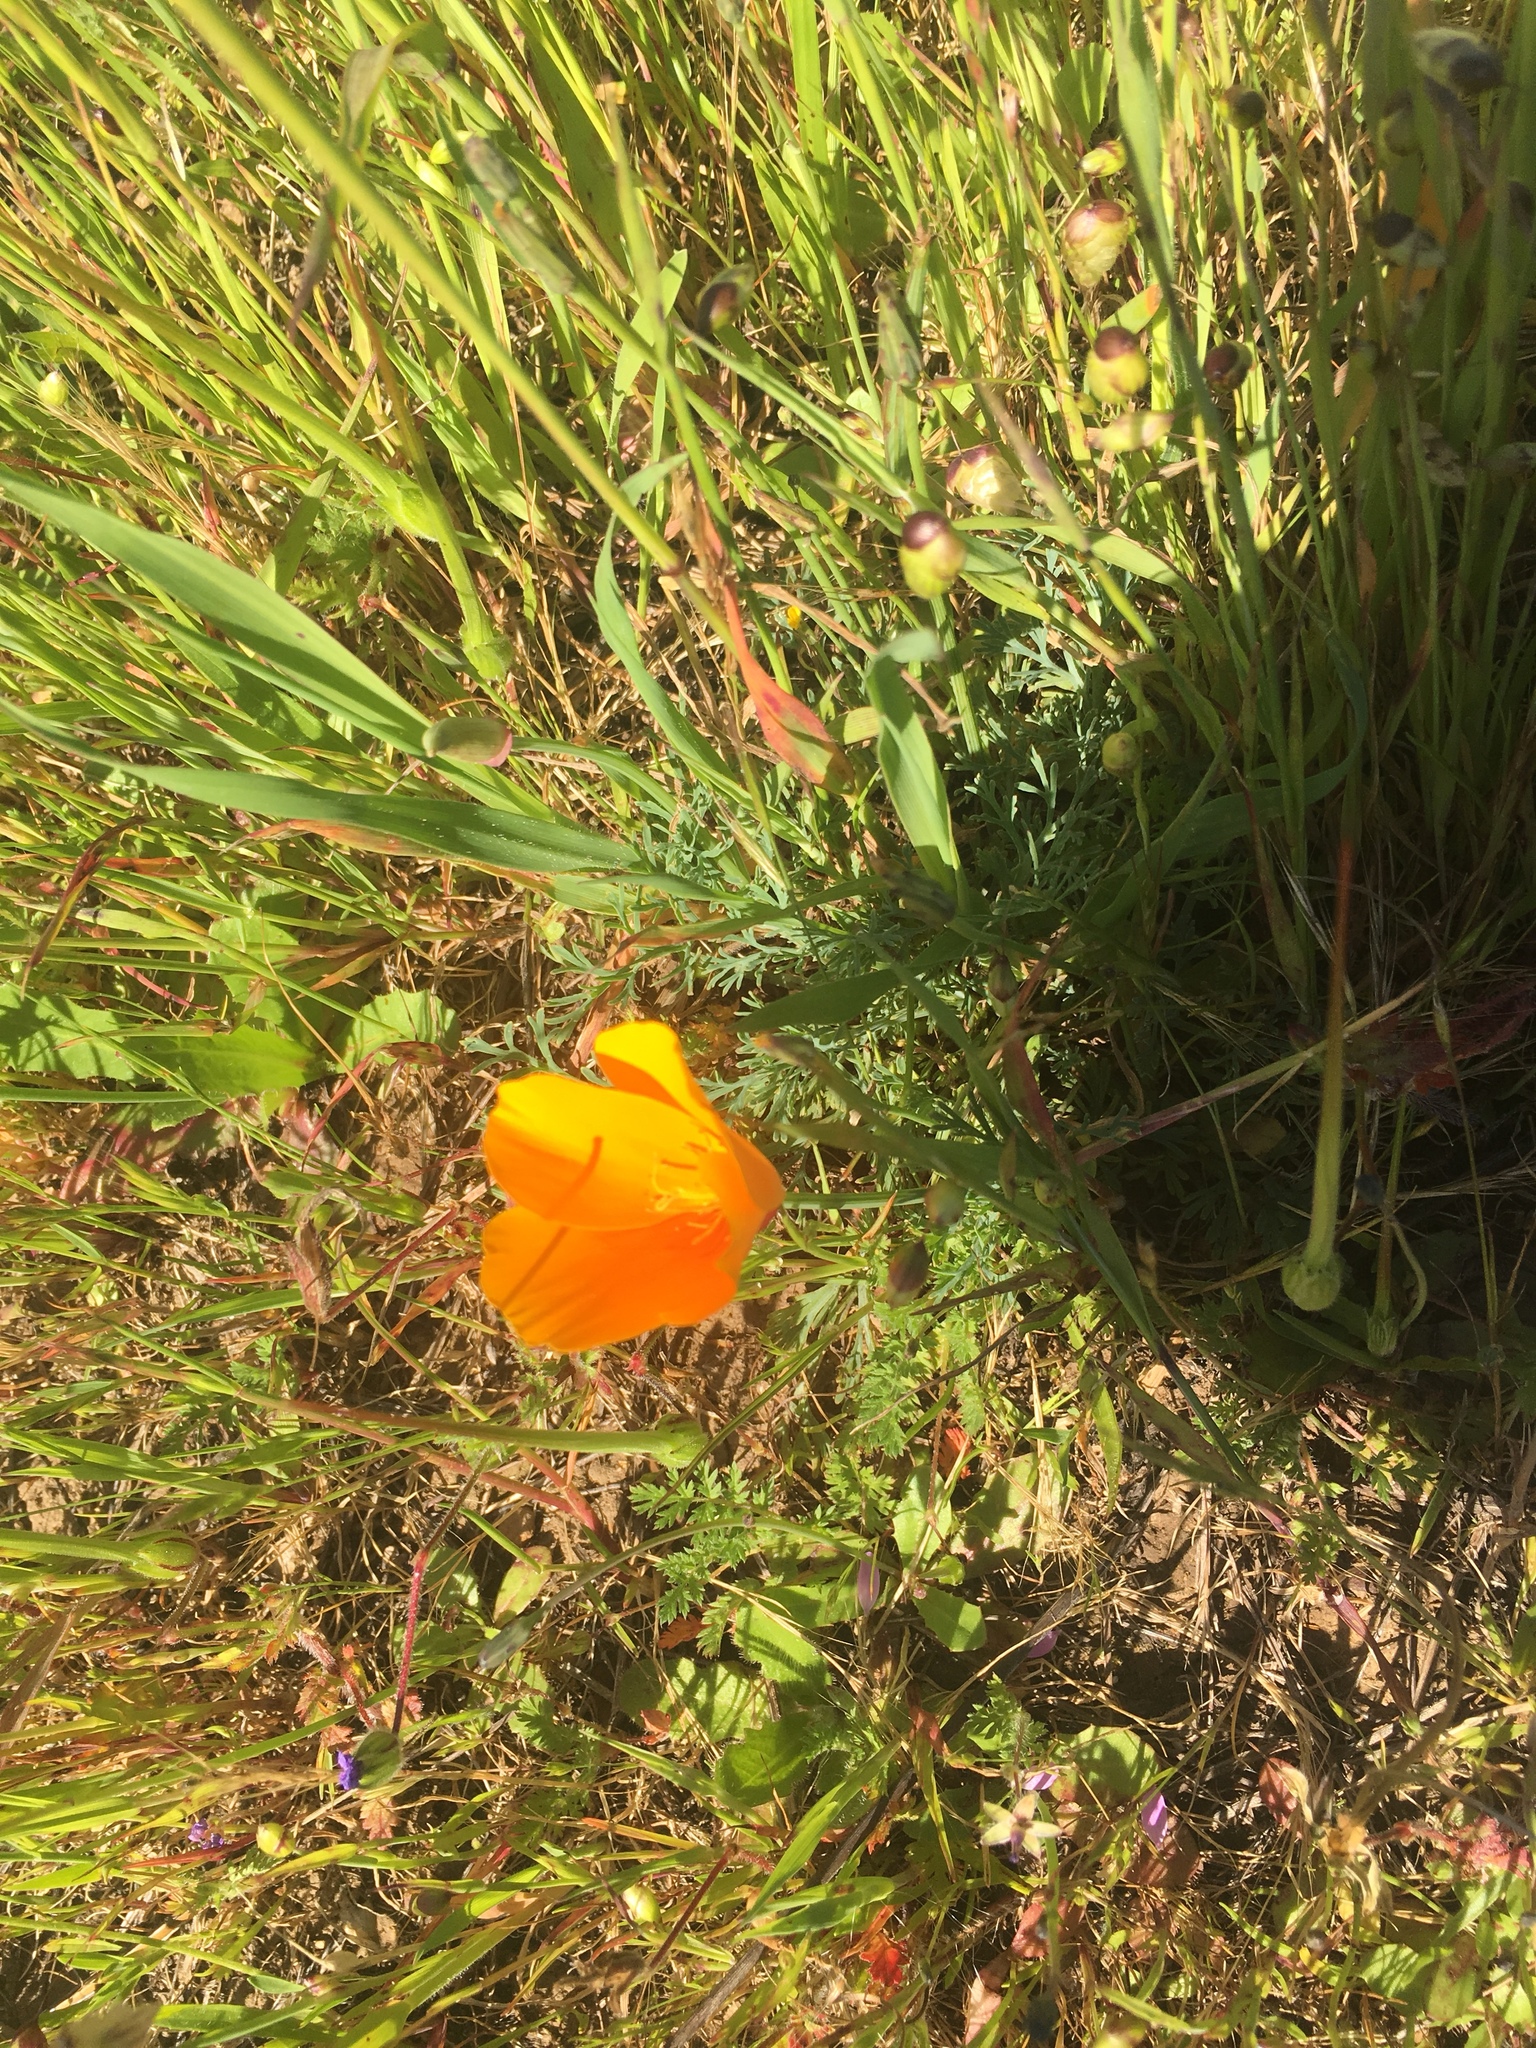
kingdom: Plantae
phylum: Tracheophyta
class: Magnoliopsida
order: Ranunculales
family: Papaveraceae
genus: Eschscholzia
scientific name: Eschscholzia californica
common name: California poppy
